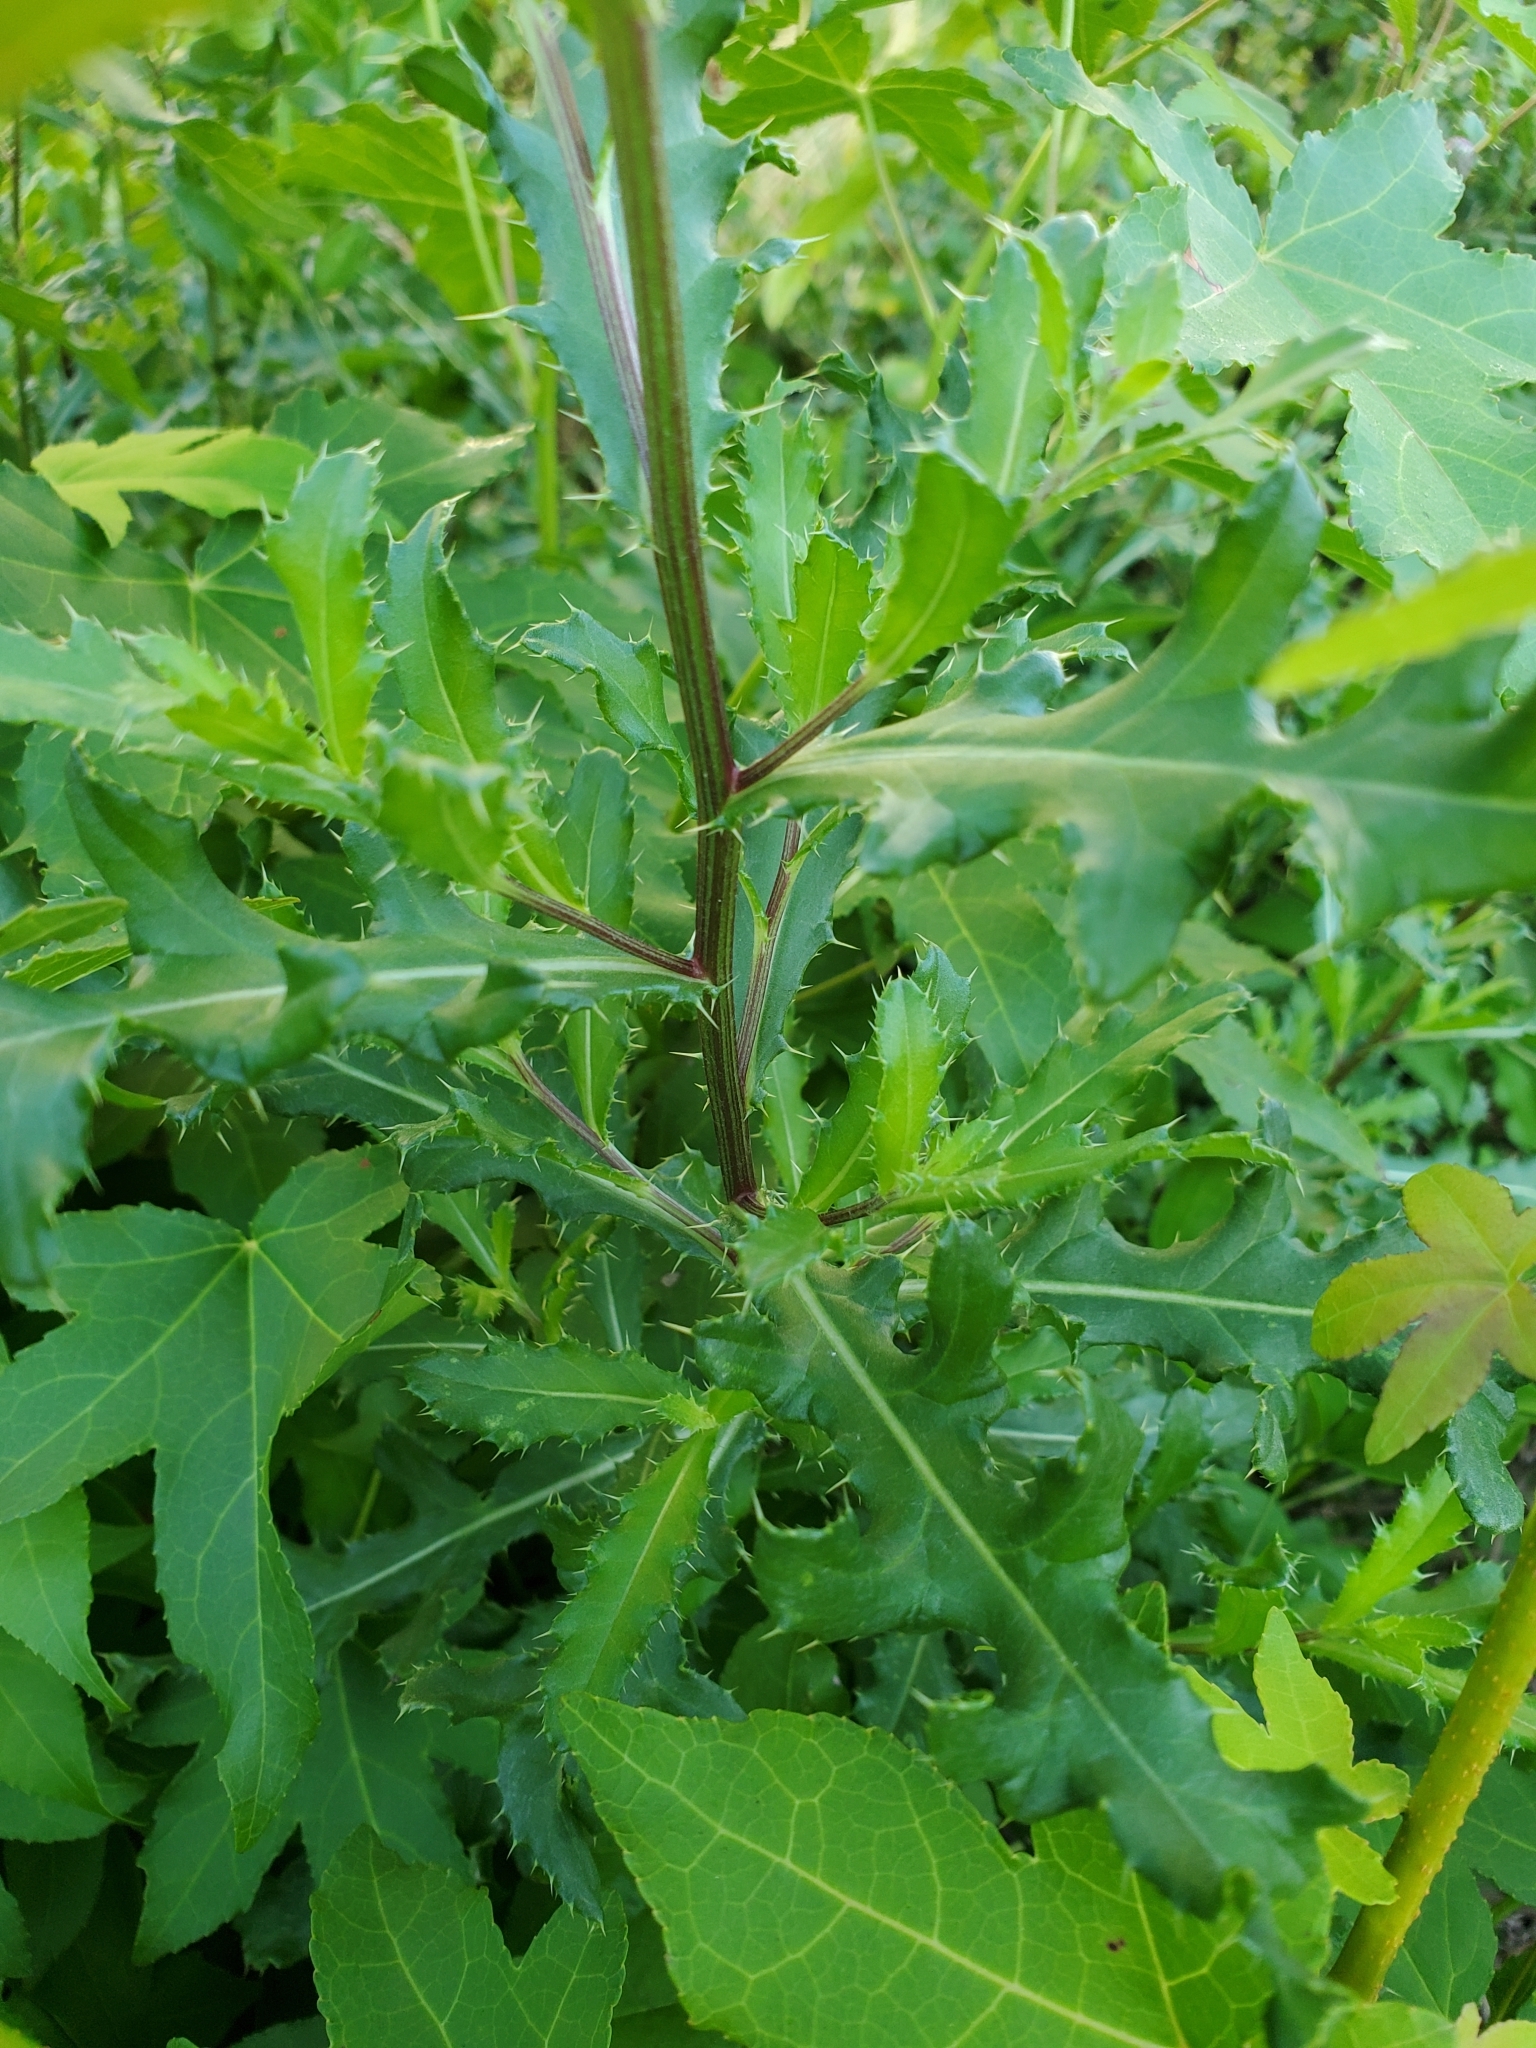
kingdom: Plantae
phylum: Tracheophyta
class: Magnoliopsida
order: Asterales
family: Asteraceae
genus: Cirsium
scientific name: Cirsium arvense
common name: Creeping thistle
